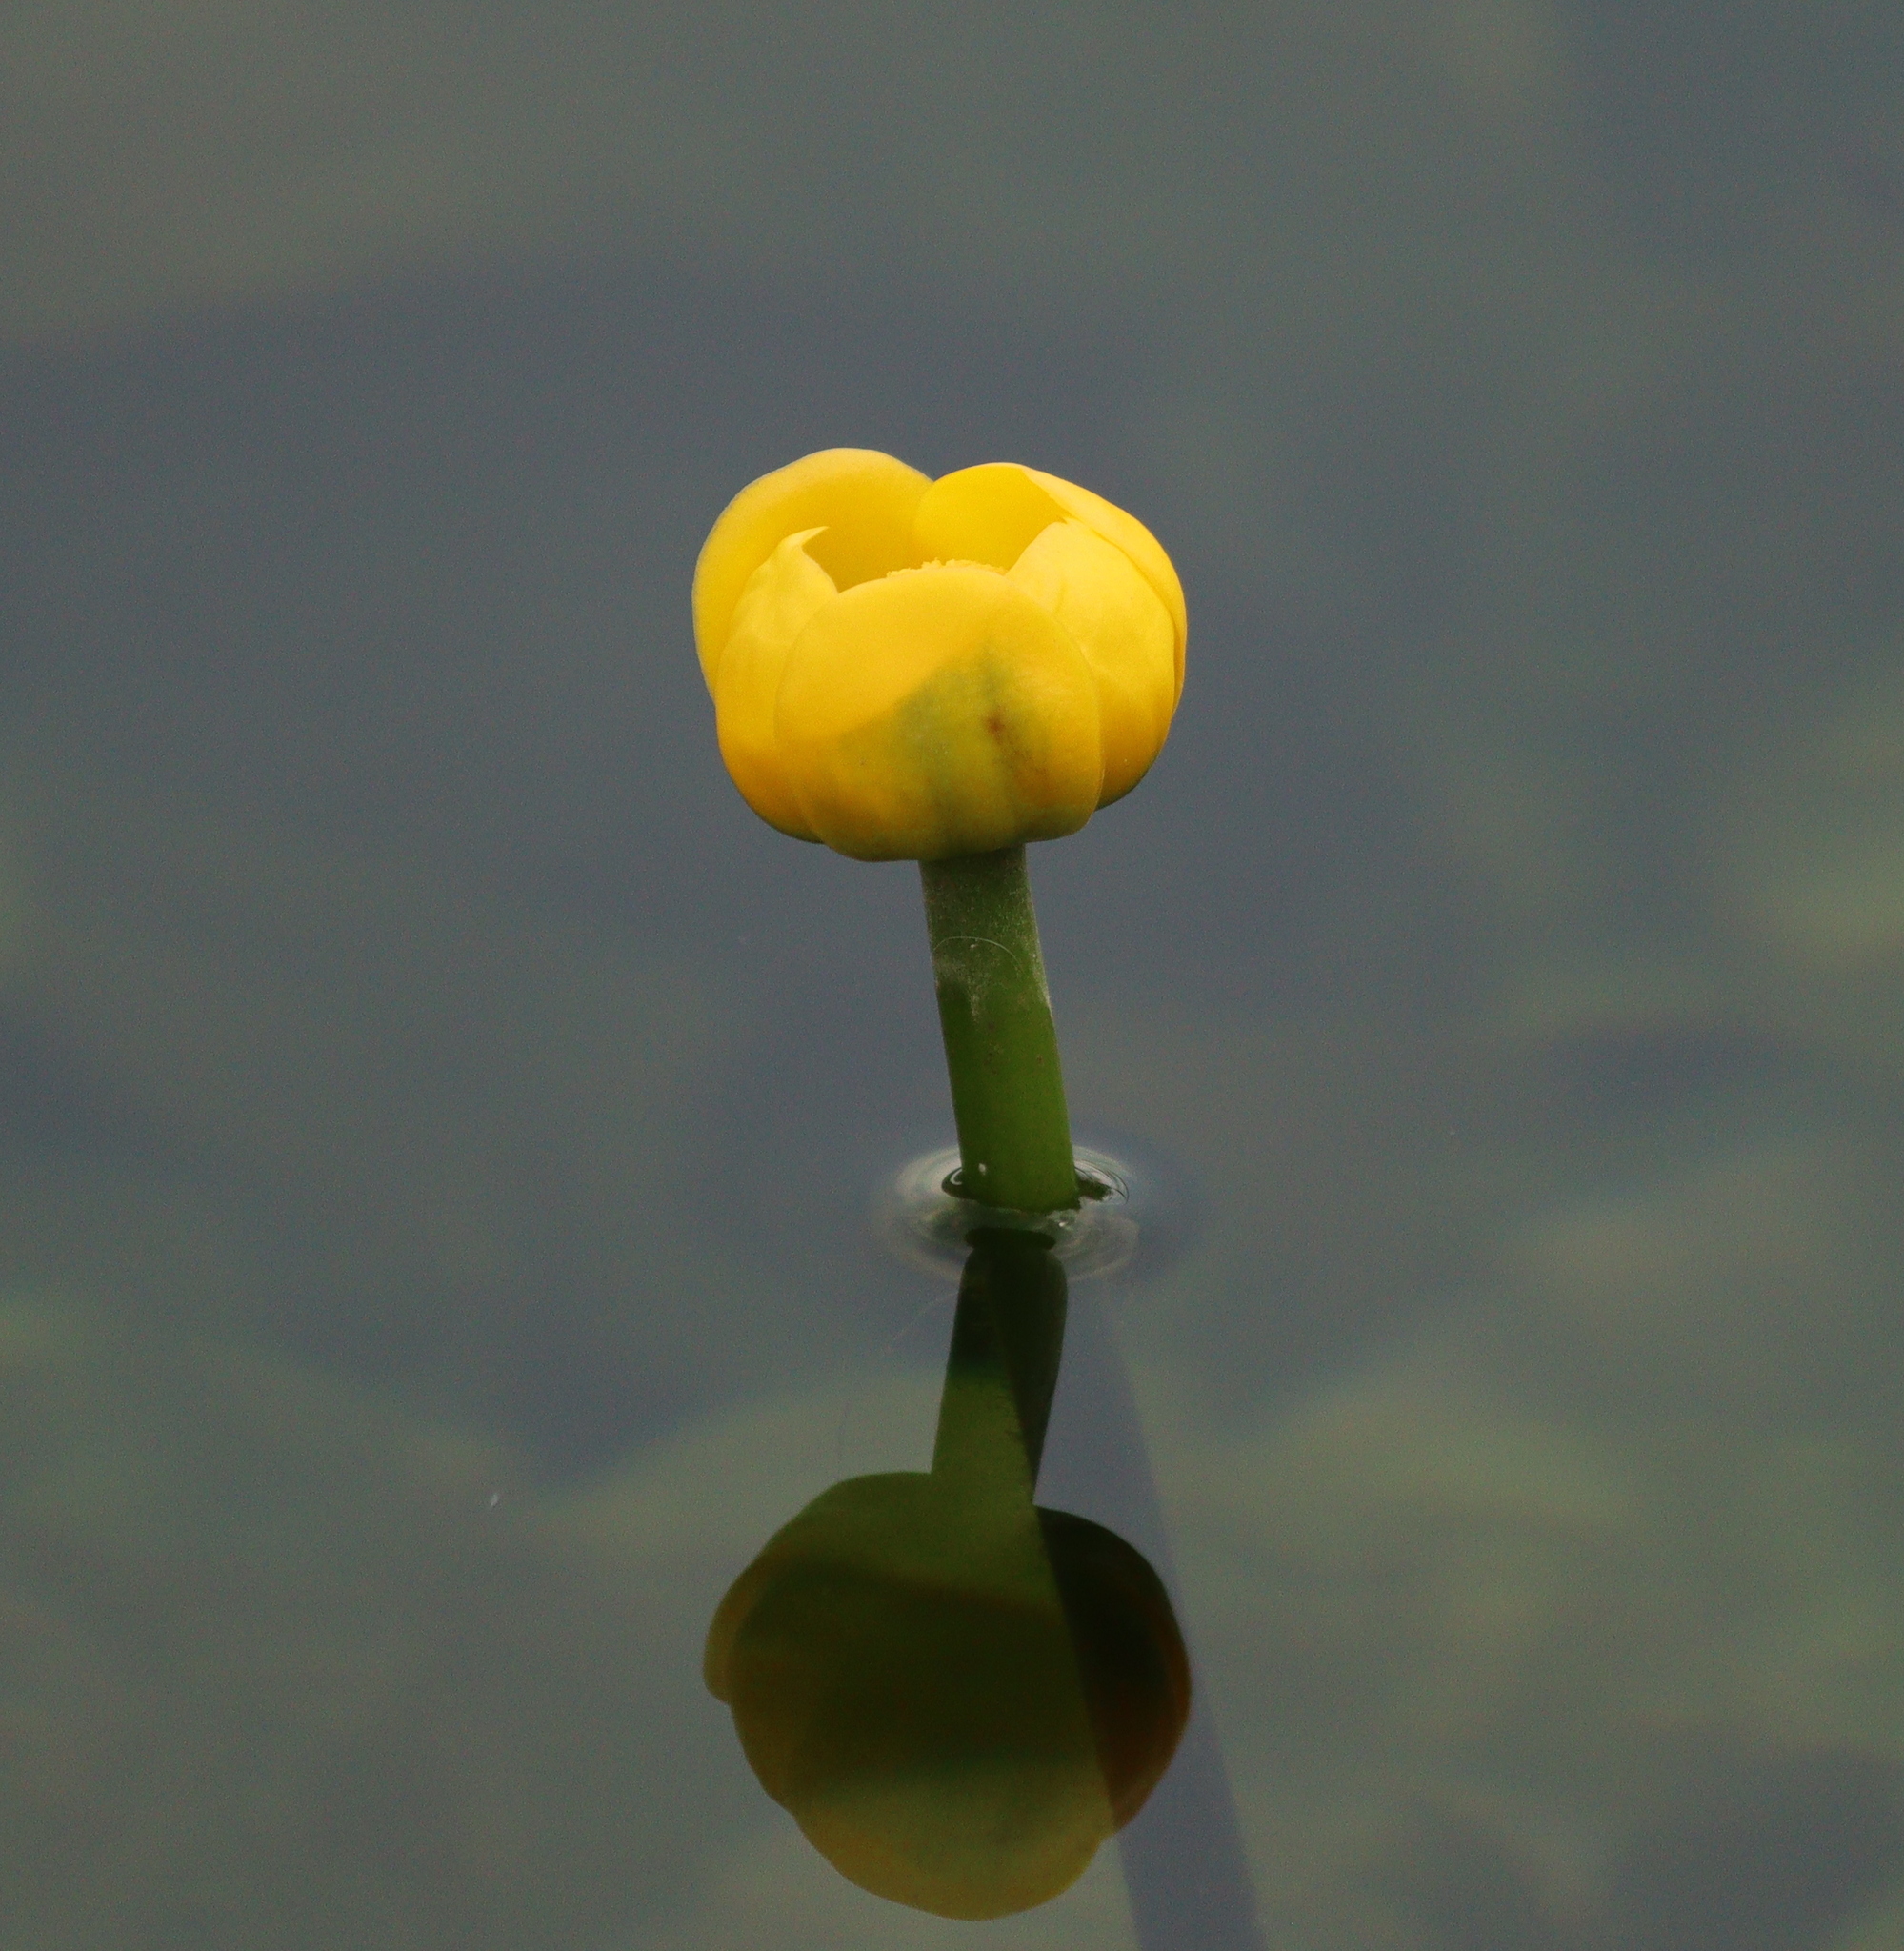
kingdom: Plantae
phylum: Tracheophyta
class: Magnoliopsida
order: Nymphaeales
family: Nymphaeaceae
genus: Nuphar
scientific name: Nuphar lutea
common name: Yellow water-lily
